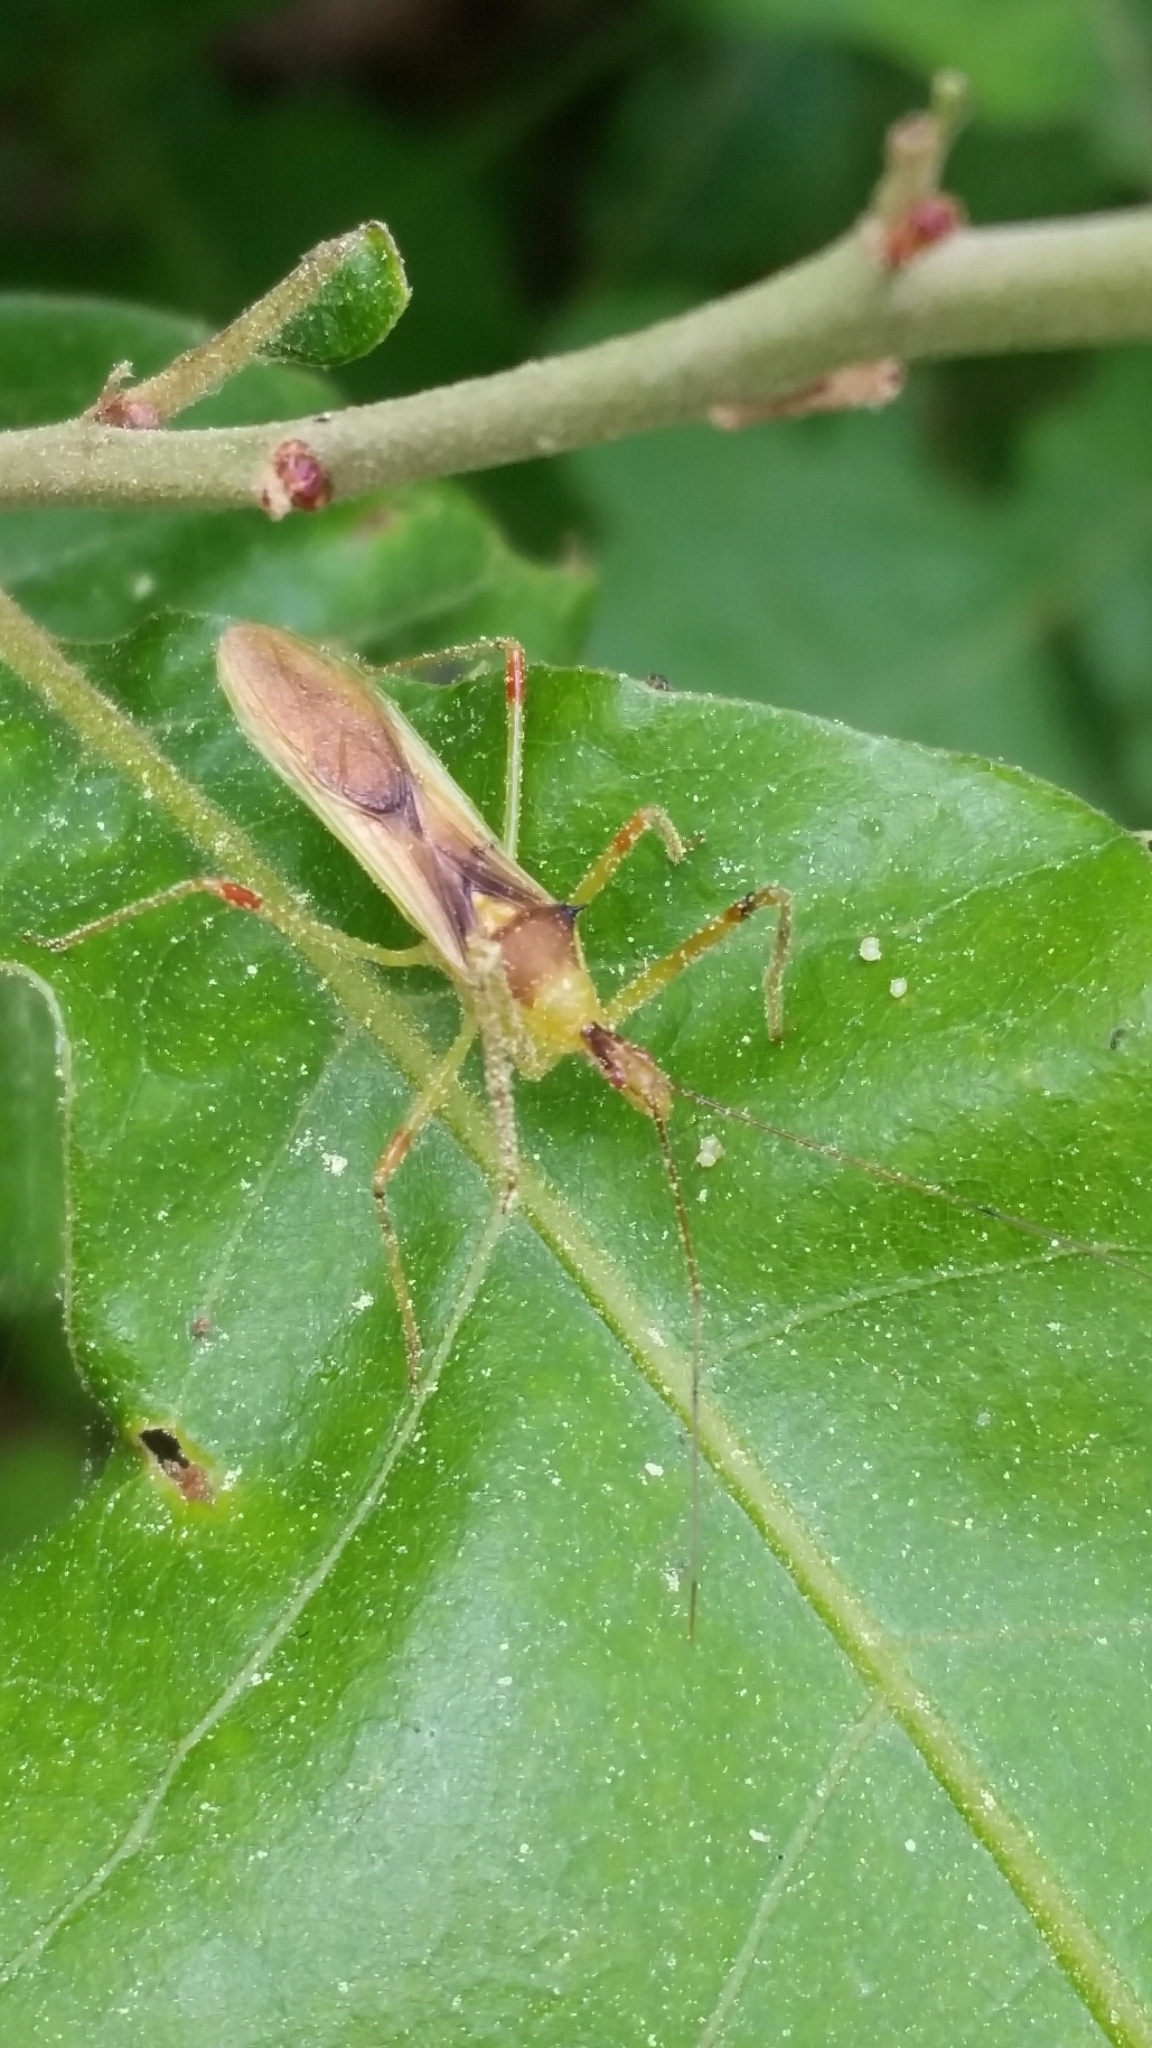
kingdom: Animalia
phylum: Arthropoda
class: Insecta
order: Hemiptera
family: Reduviidae
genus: Zelus
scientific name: Zelus luridus
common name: Pale green assassin bug
